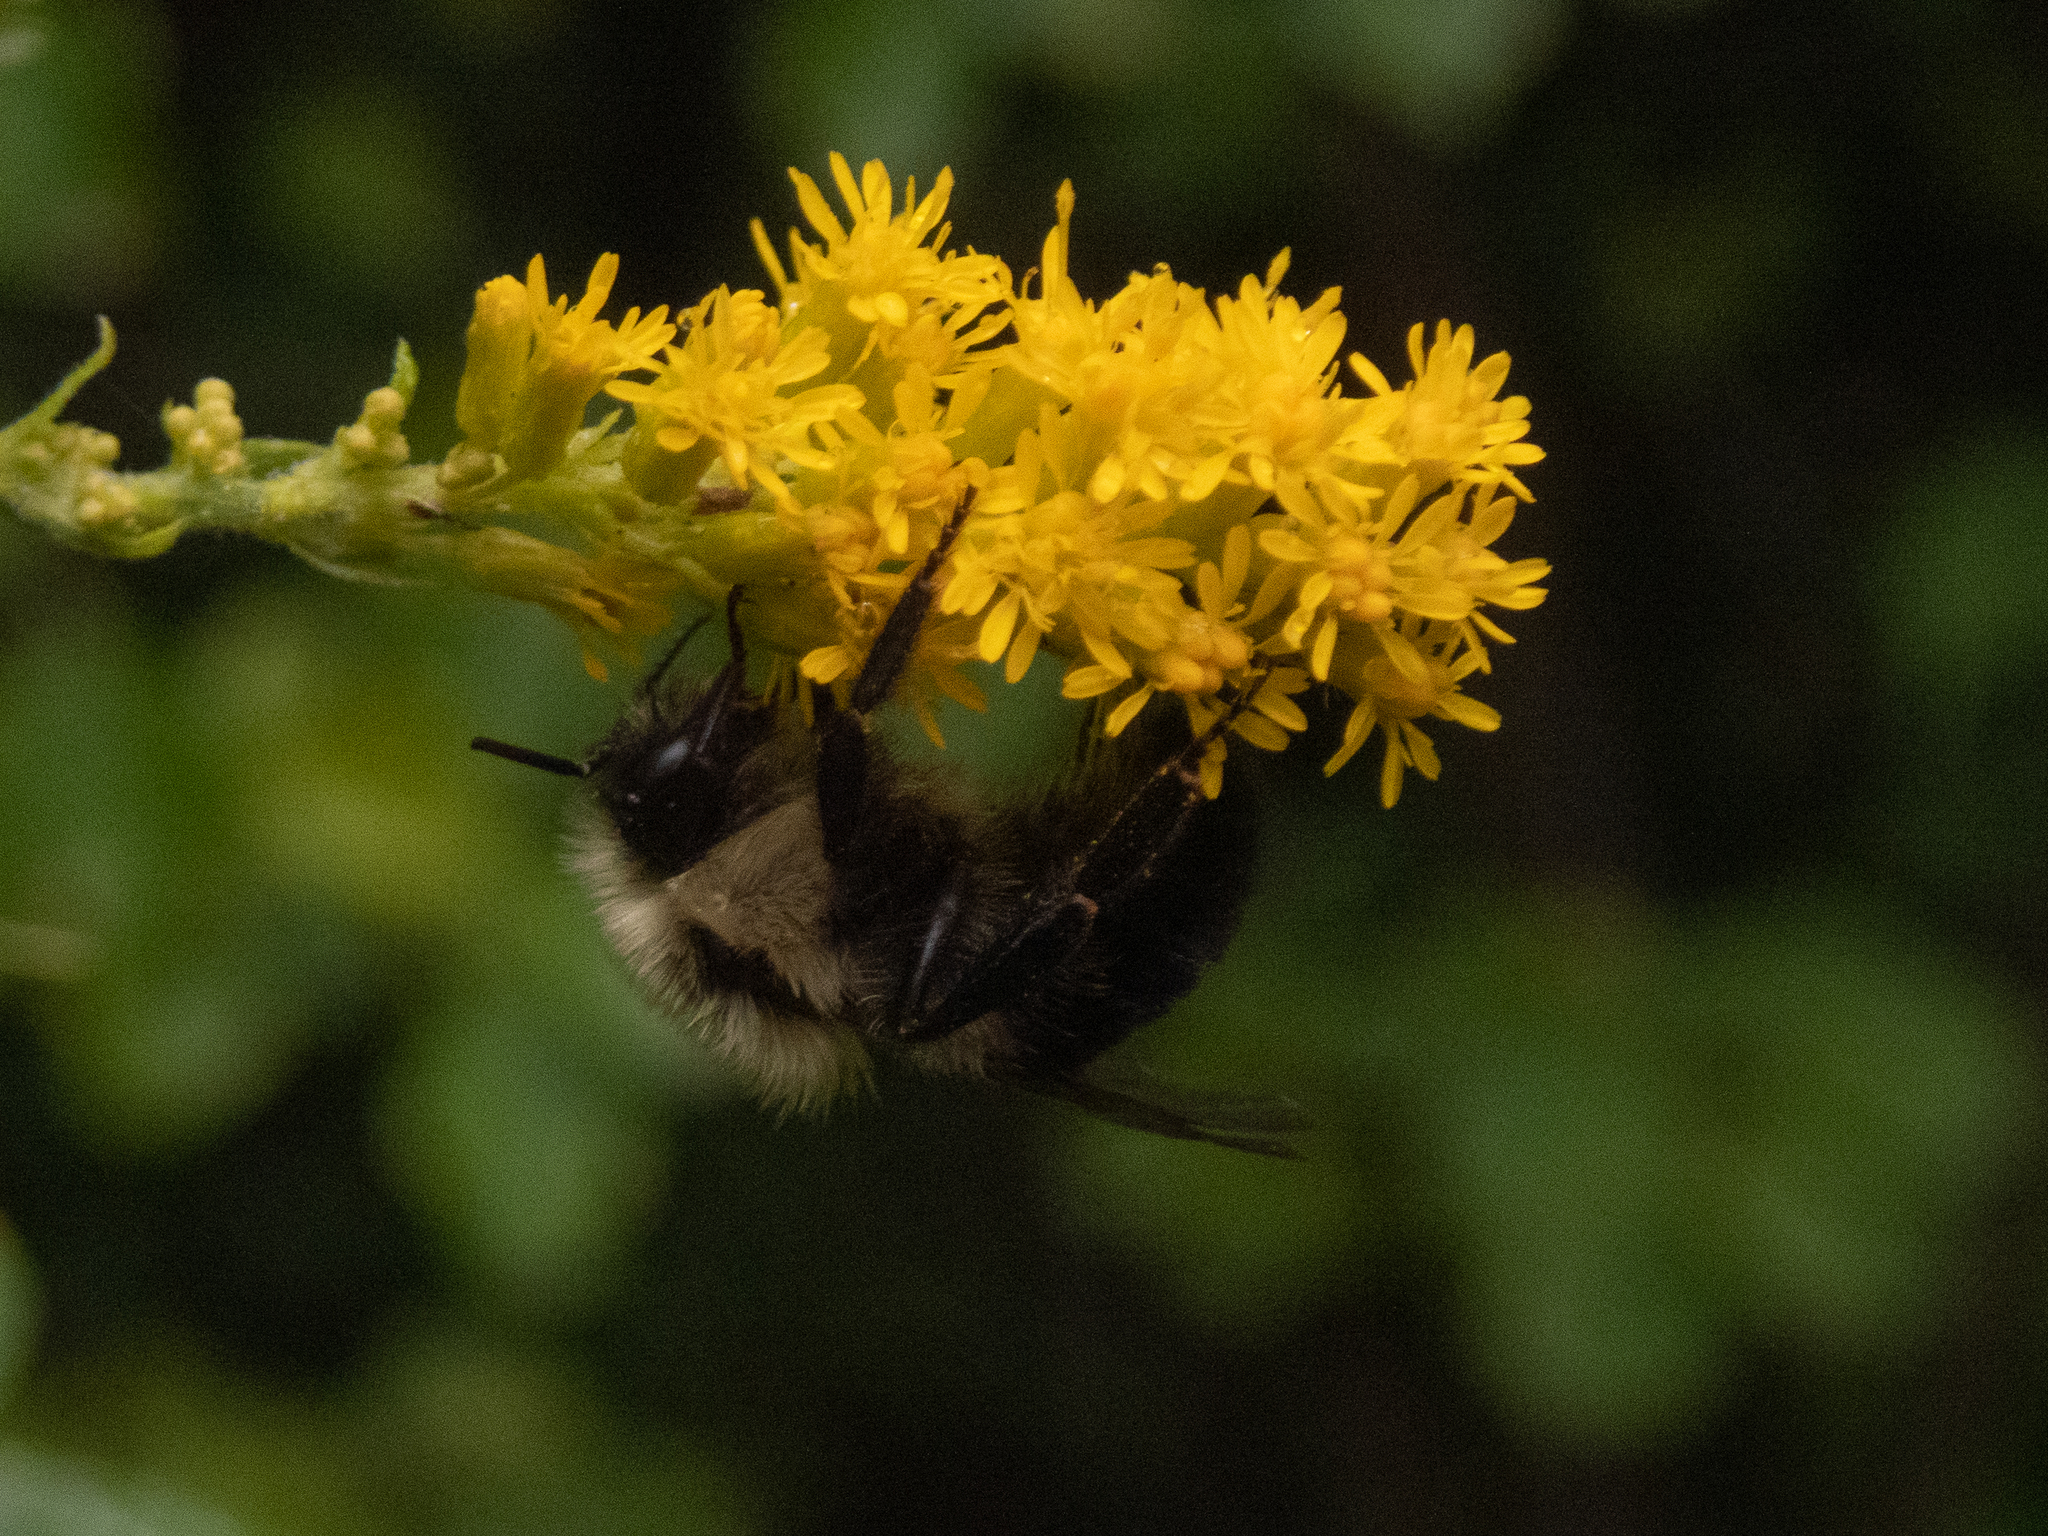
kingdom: Animalia
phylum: Arthropoda
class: Insecta
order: Hymenoptera
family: Apidae
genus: Bombus
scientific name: Bombus impatiens
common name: Common eastern bumble bee
